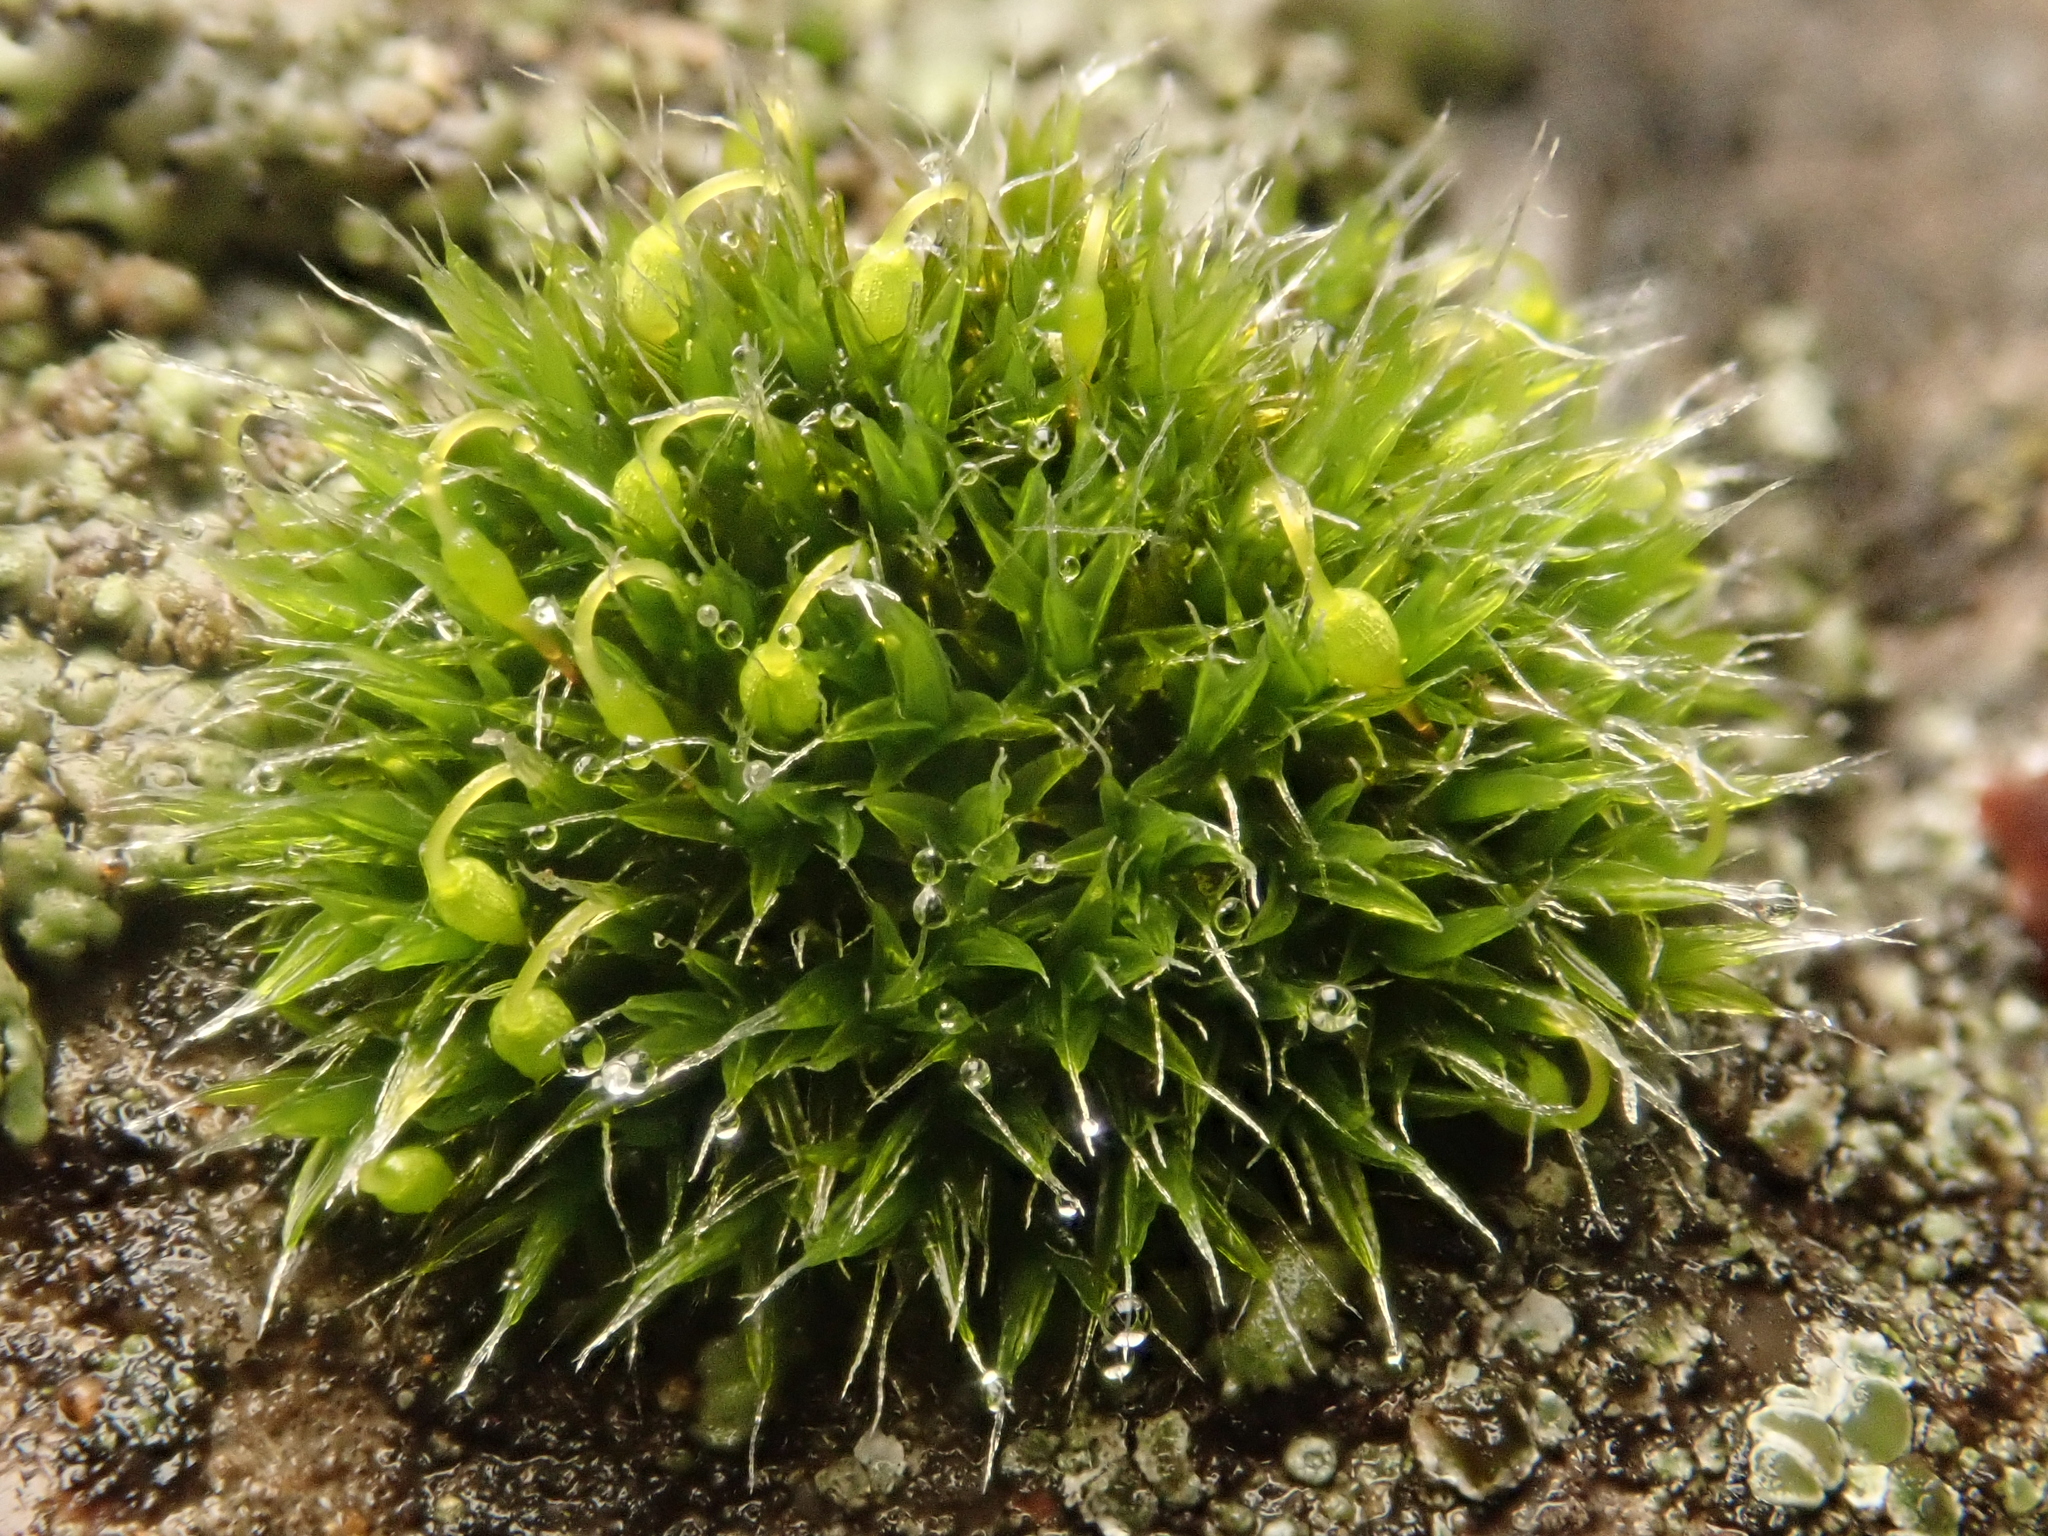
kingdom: Plantae
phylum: Bryophyta
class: Bryopsida
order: Grimmiales
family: Grimmiaceae
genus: Grimmia
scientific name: Grimmia pulvinata
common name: Grey-cushioned grimmia
